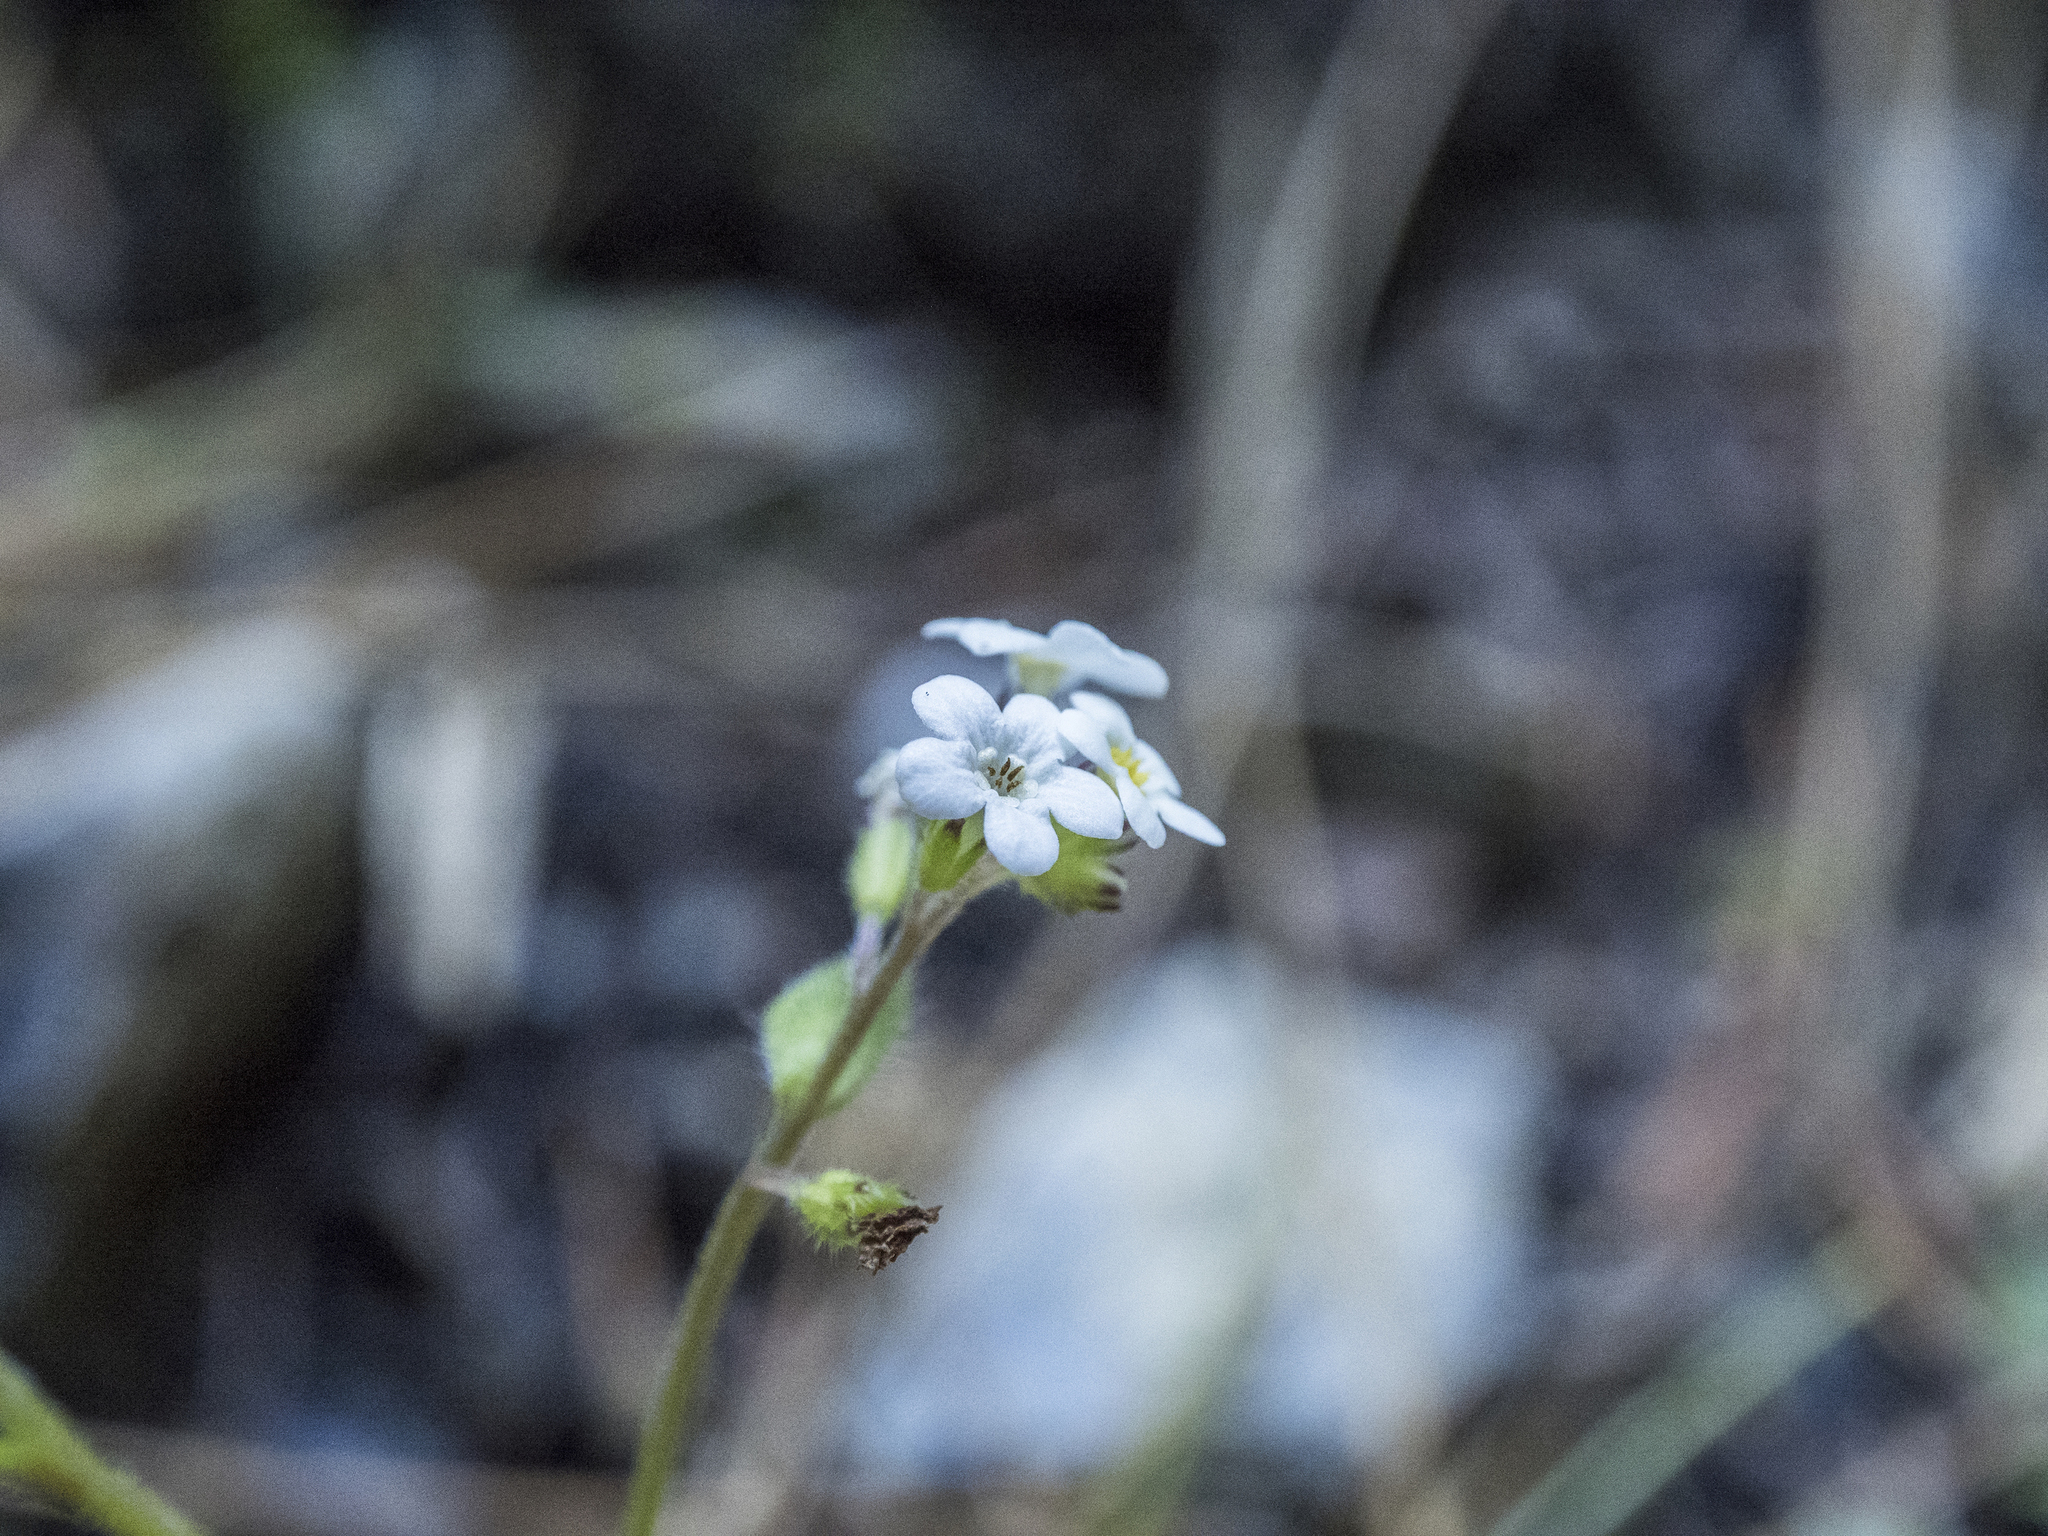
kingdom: Plantae
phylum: Tracheophyta
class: Magnoliopsida
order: Boraginales
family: Boraginaceae
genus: Myosotis
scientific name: Myosotis forsteri
